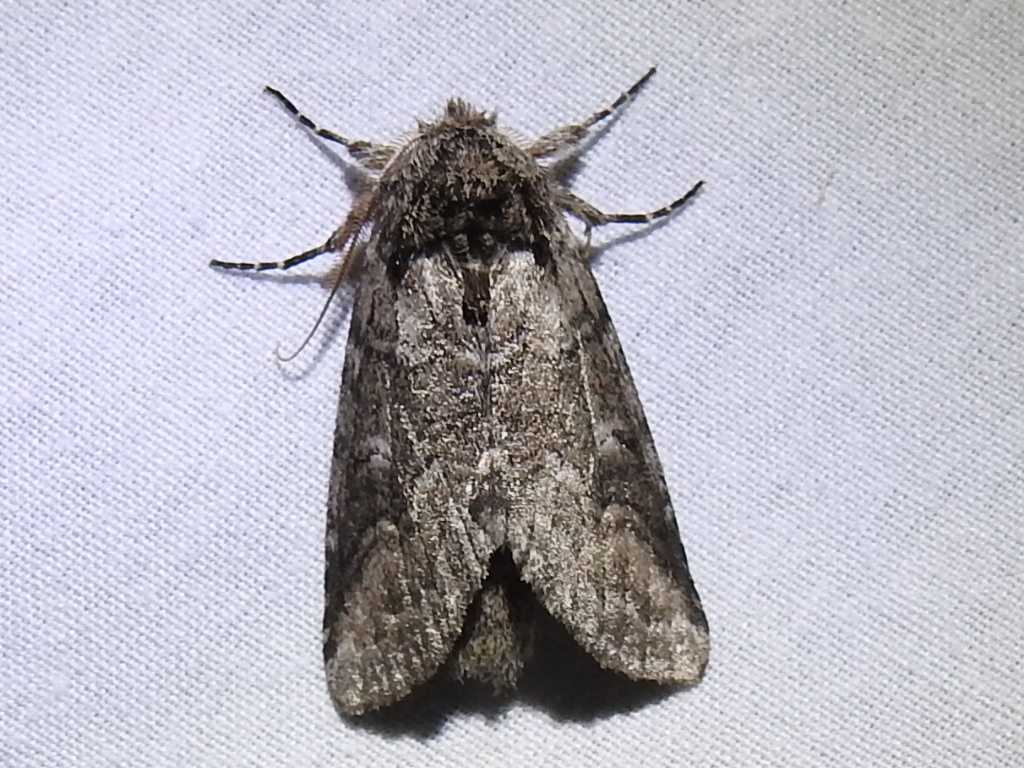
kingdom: Animalia
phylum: Arthropoda
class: Insecta
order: Lepidoptera
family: Notodontidae
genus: Lochmaeus
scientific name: Lochmaeus bilineata
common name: Double-lined prominent
